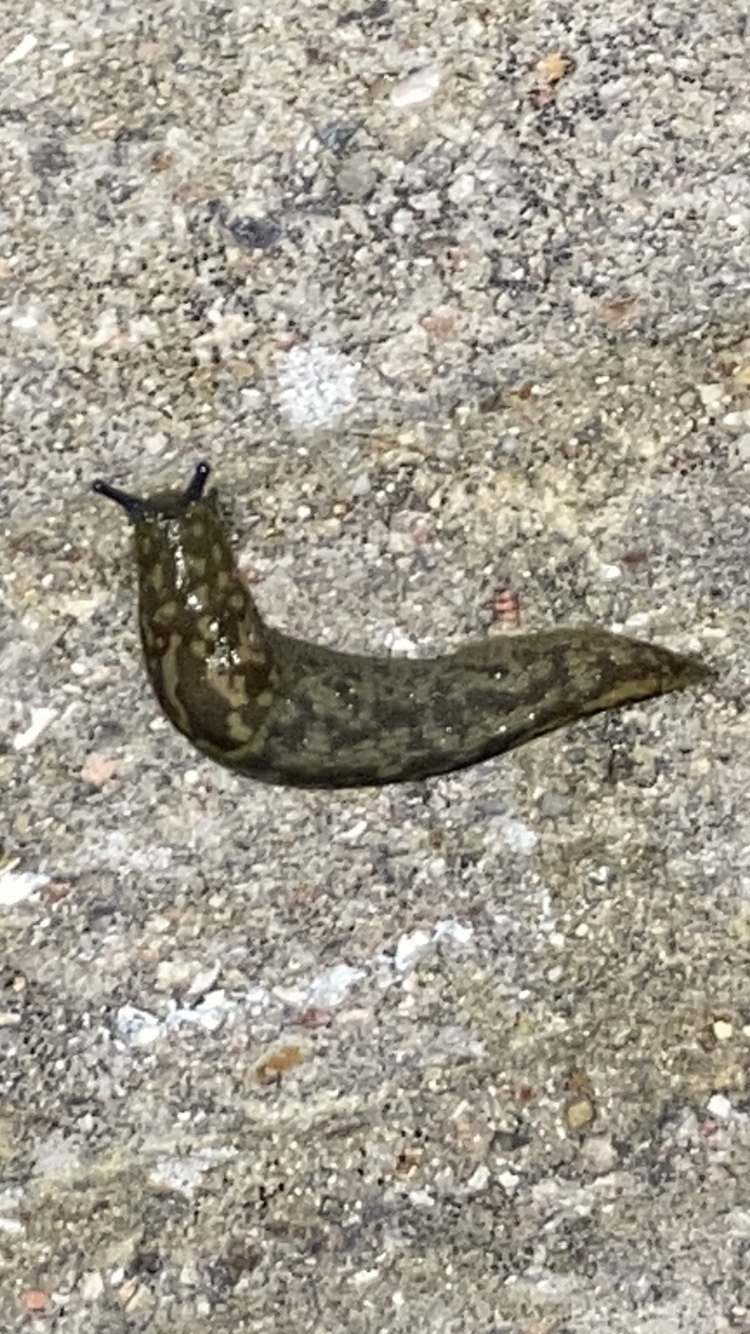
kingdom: Animalia
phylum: Mollusca
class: Gastropoda
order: Stylommatophora
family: Limacidae
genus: Limacus
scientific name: Limacus maculatus
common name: Irish yellow slug
